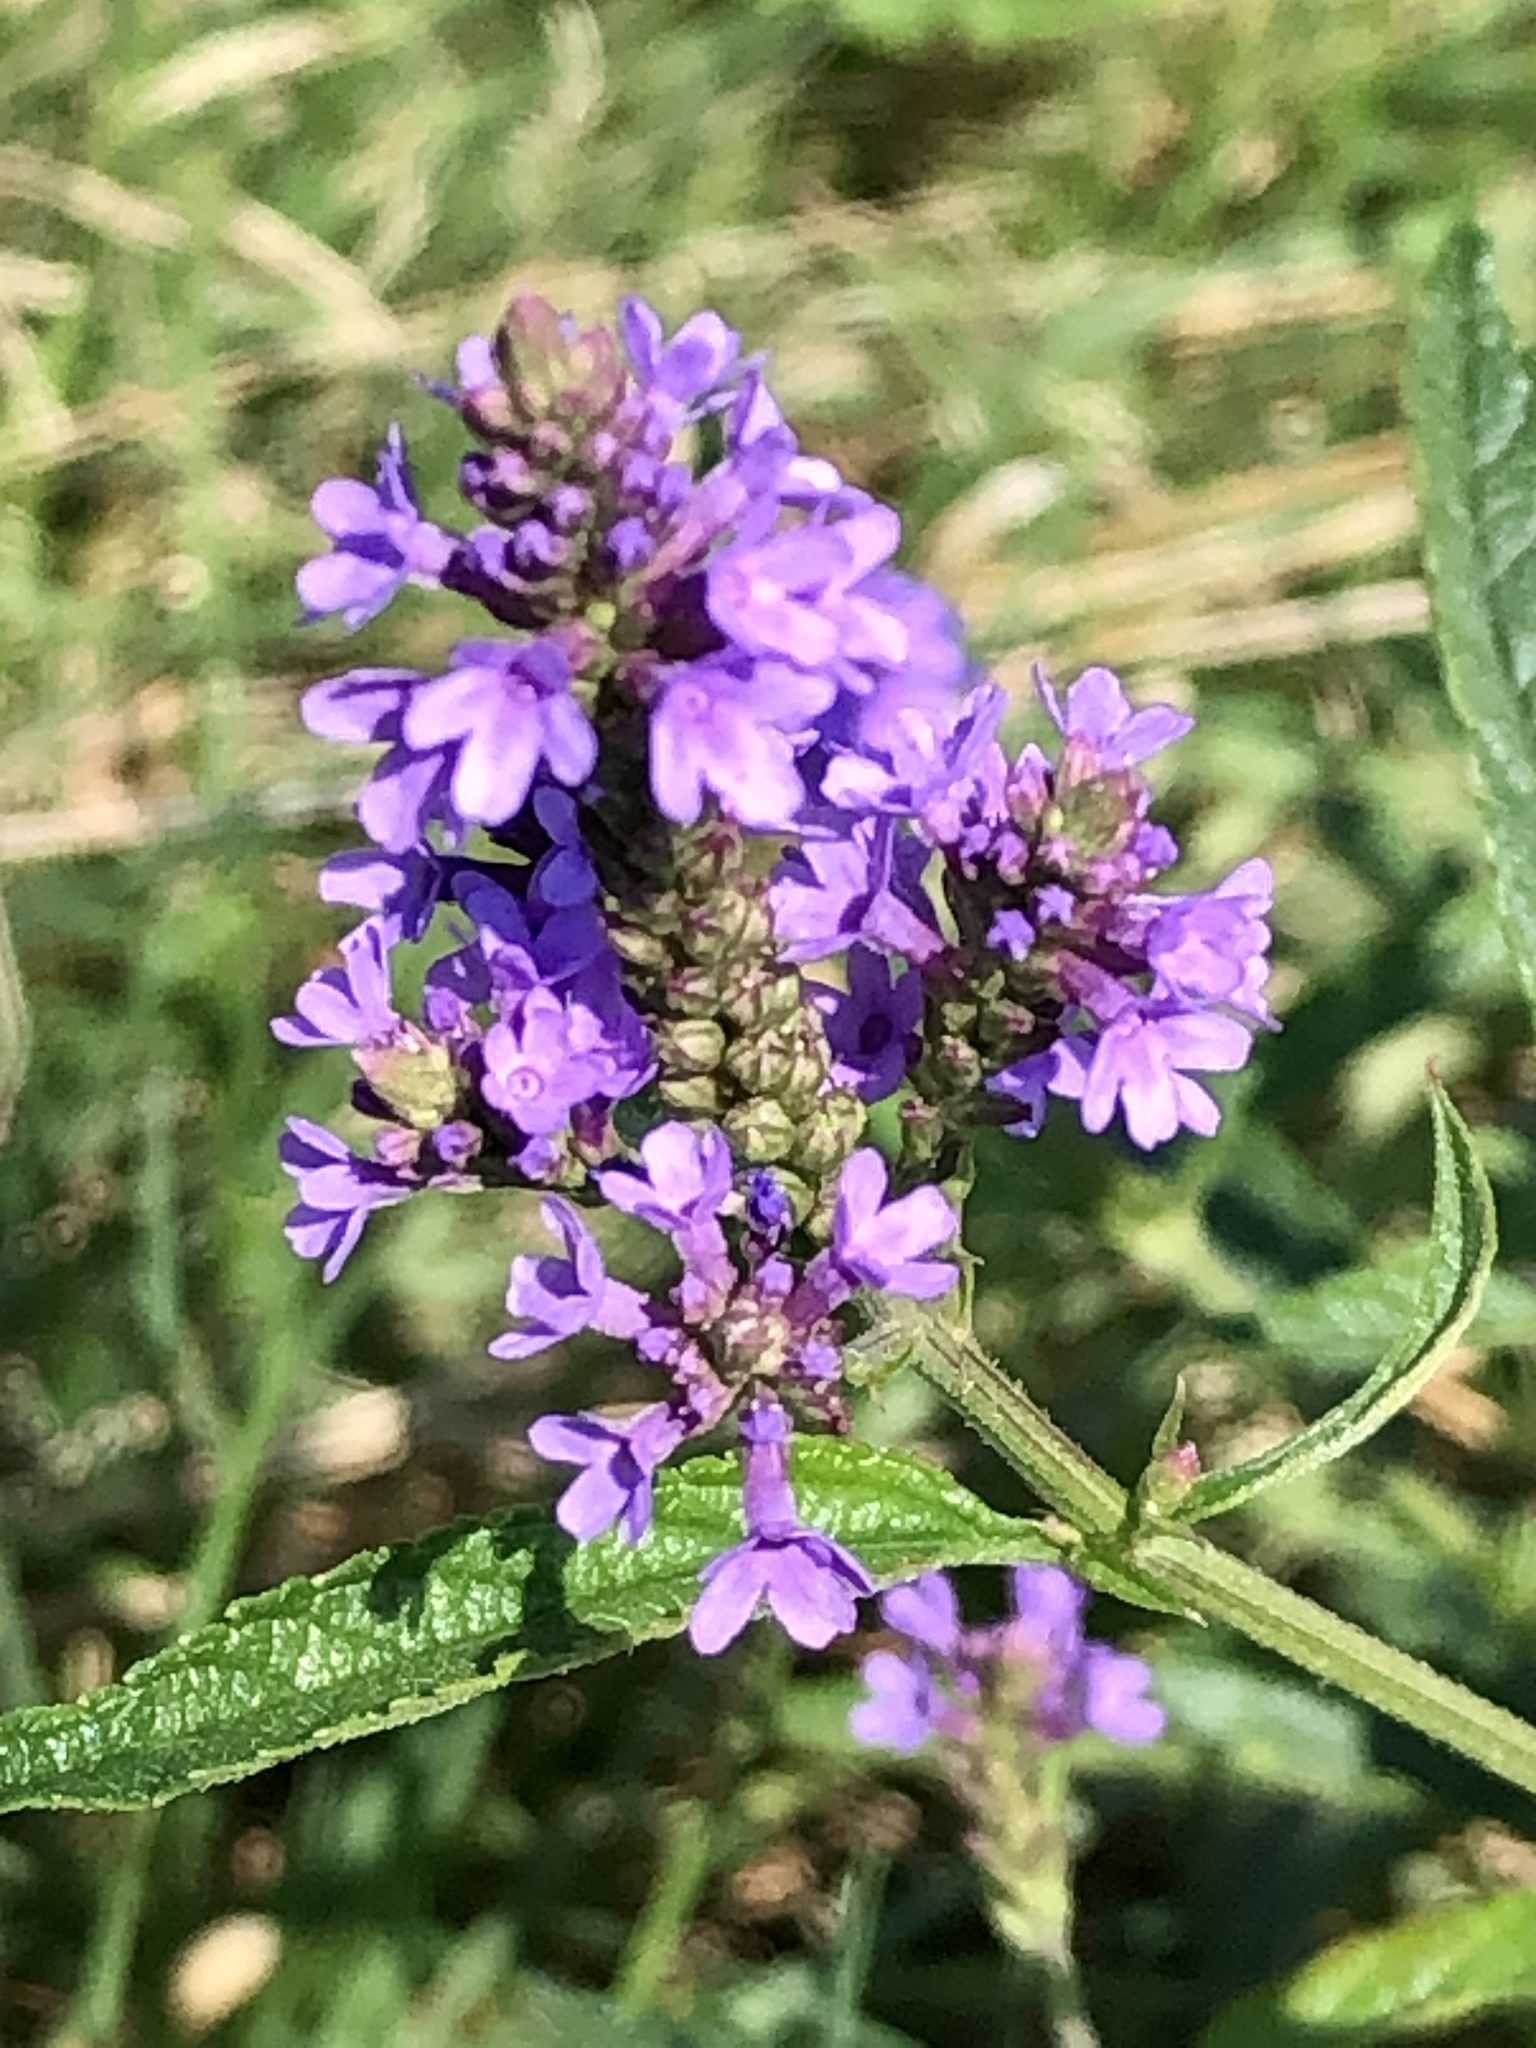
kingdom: Plantae
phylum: Tracheophyta
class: Magnoliopsida
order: Lamiales
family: Verbenaceae
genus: Verbena
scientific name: Verbena hastata
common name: American blue vervain
